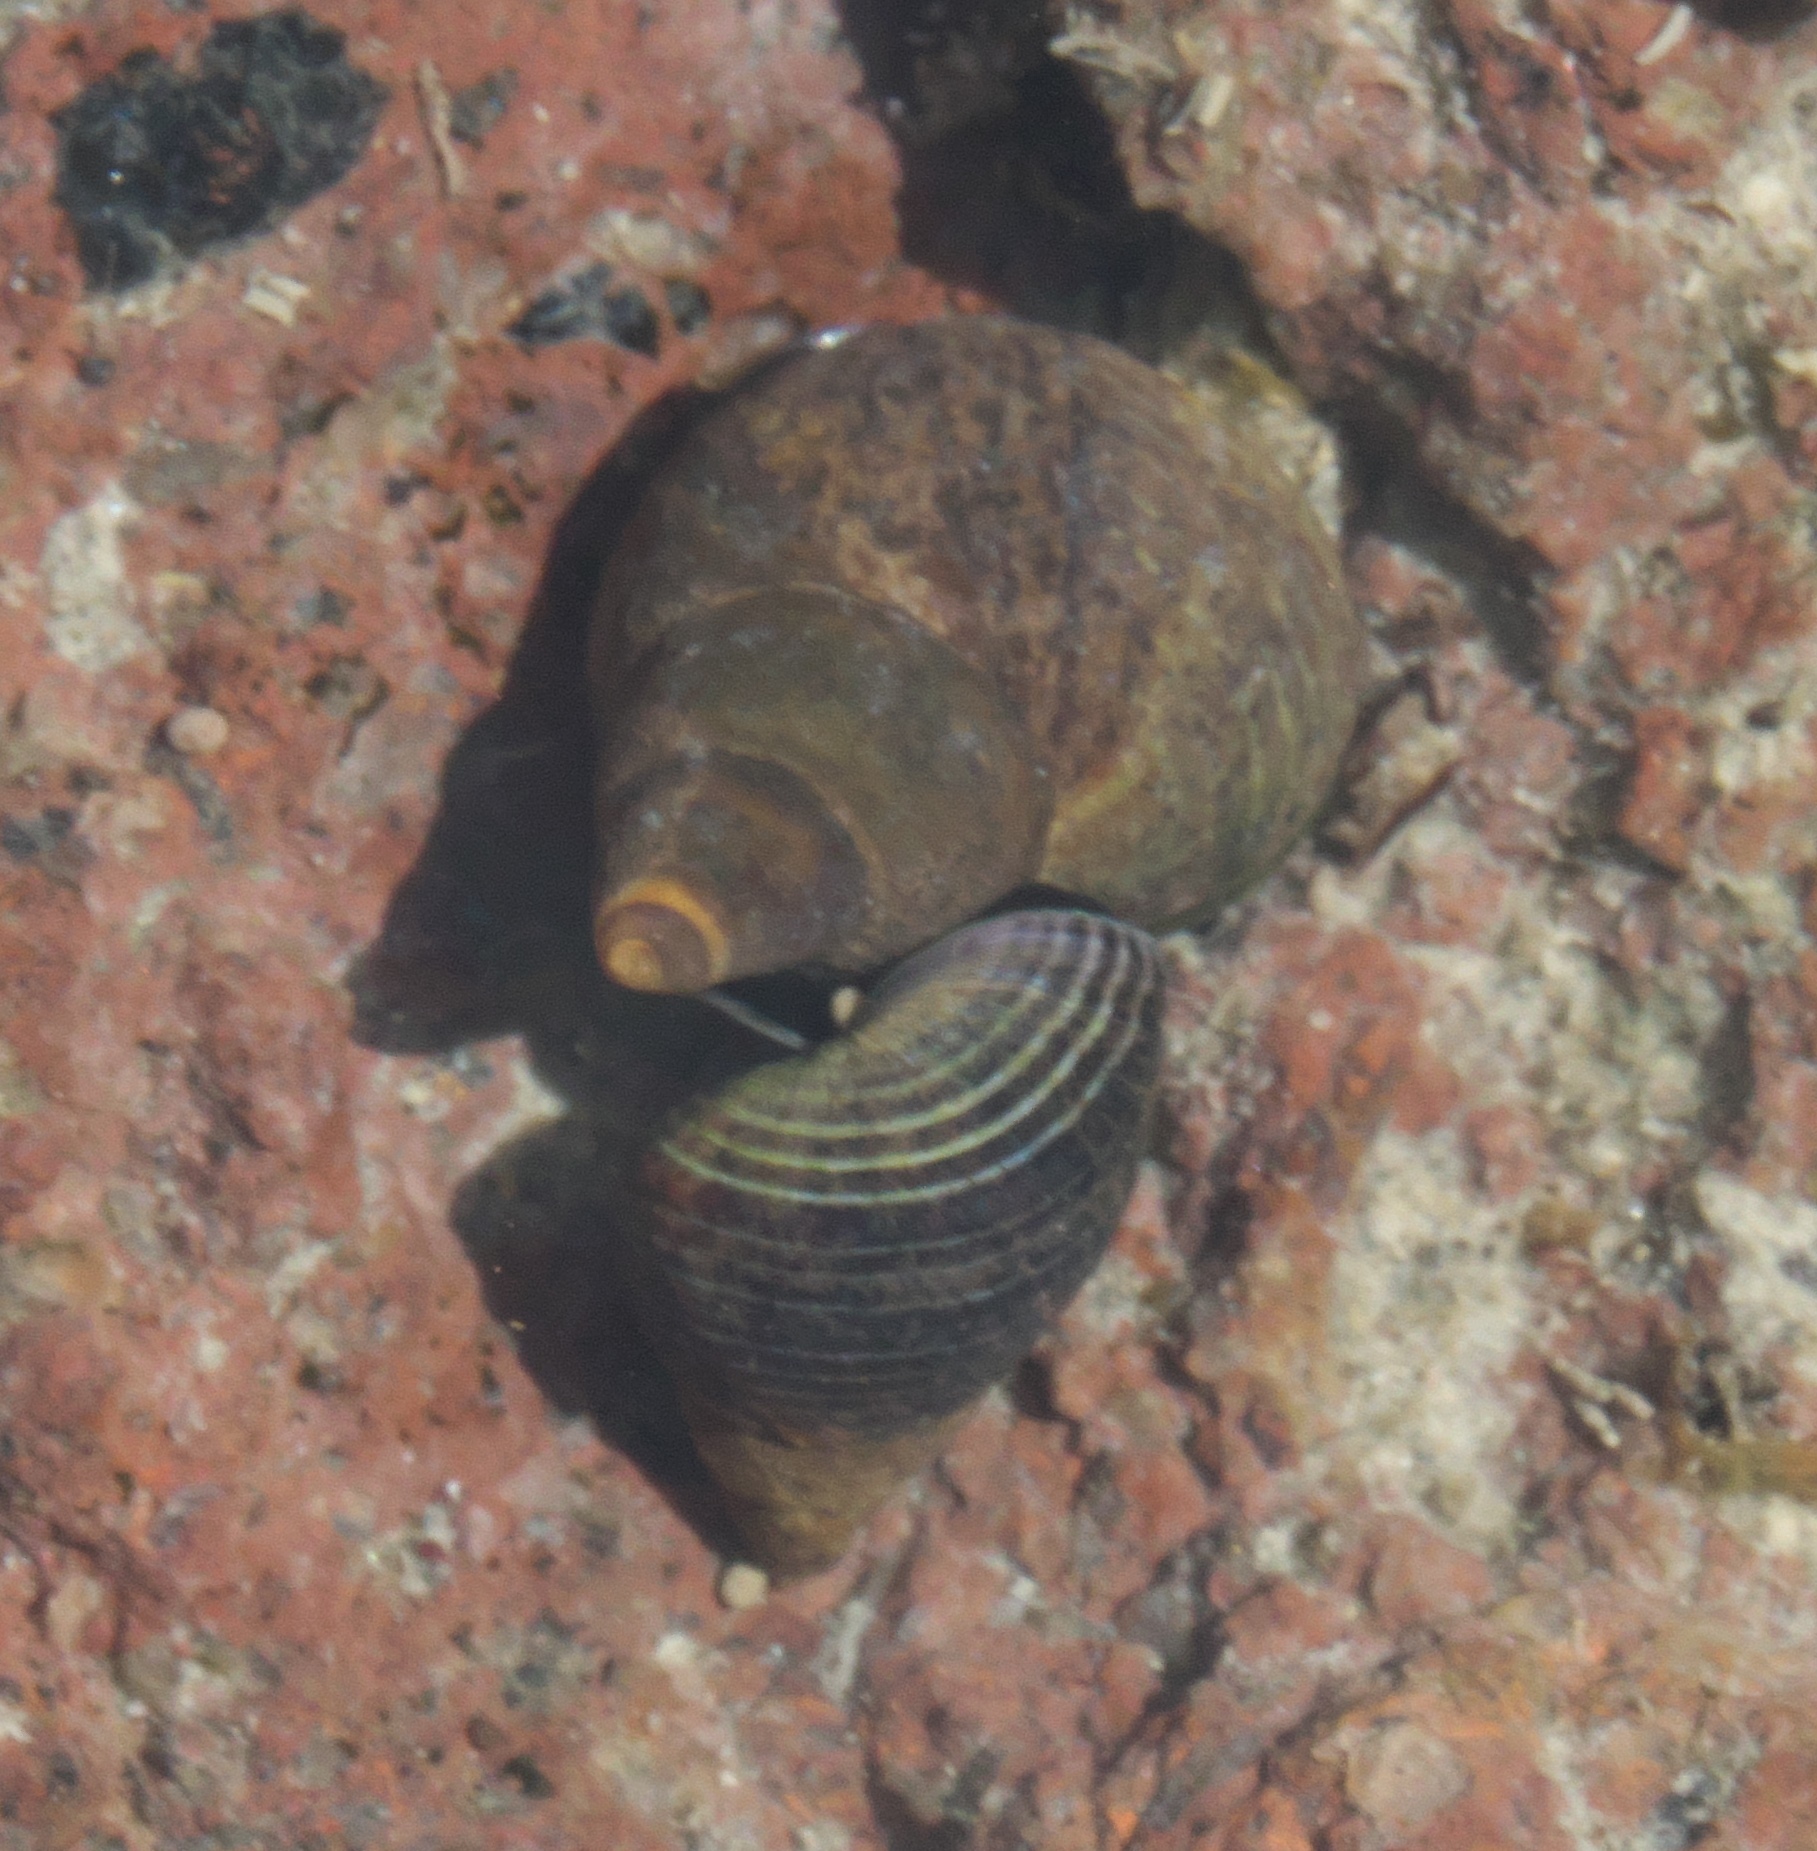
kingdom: Animalia
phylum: Mollusca
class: Gastropoda
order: Littorinimorpha
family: Littorinidae
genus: Austrolittorina
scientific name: Austrolittorina cincta
